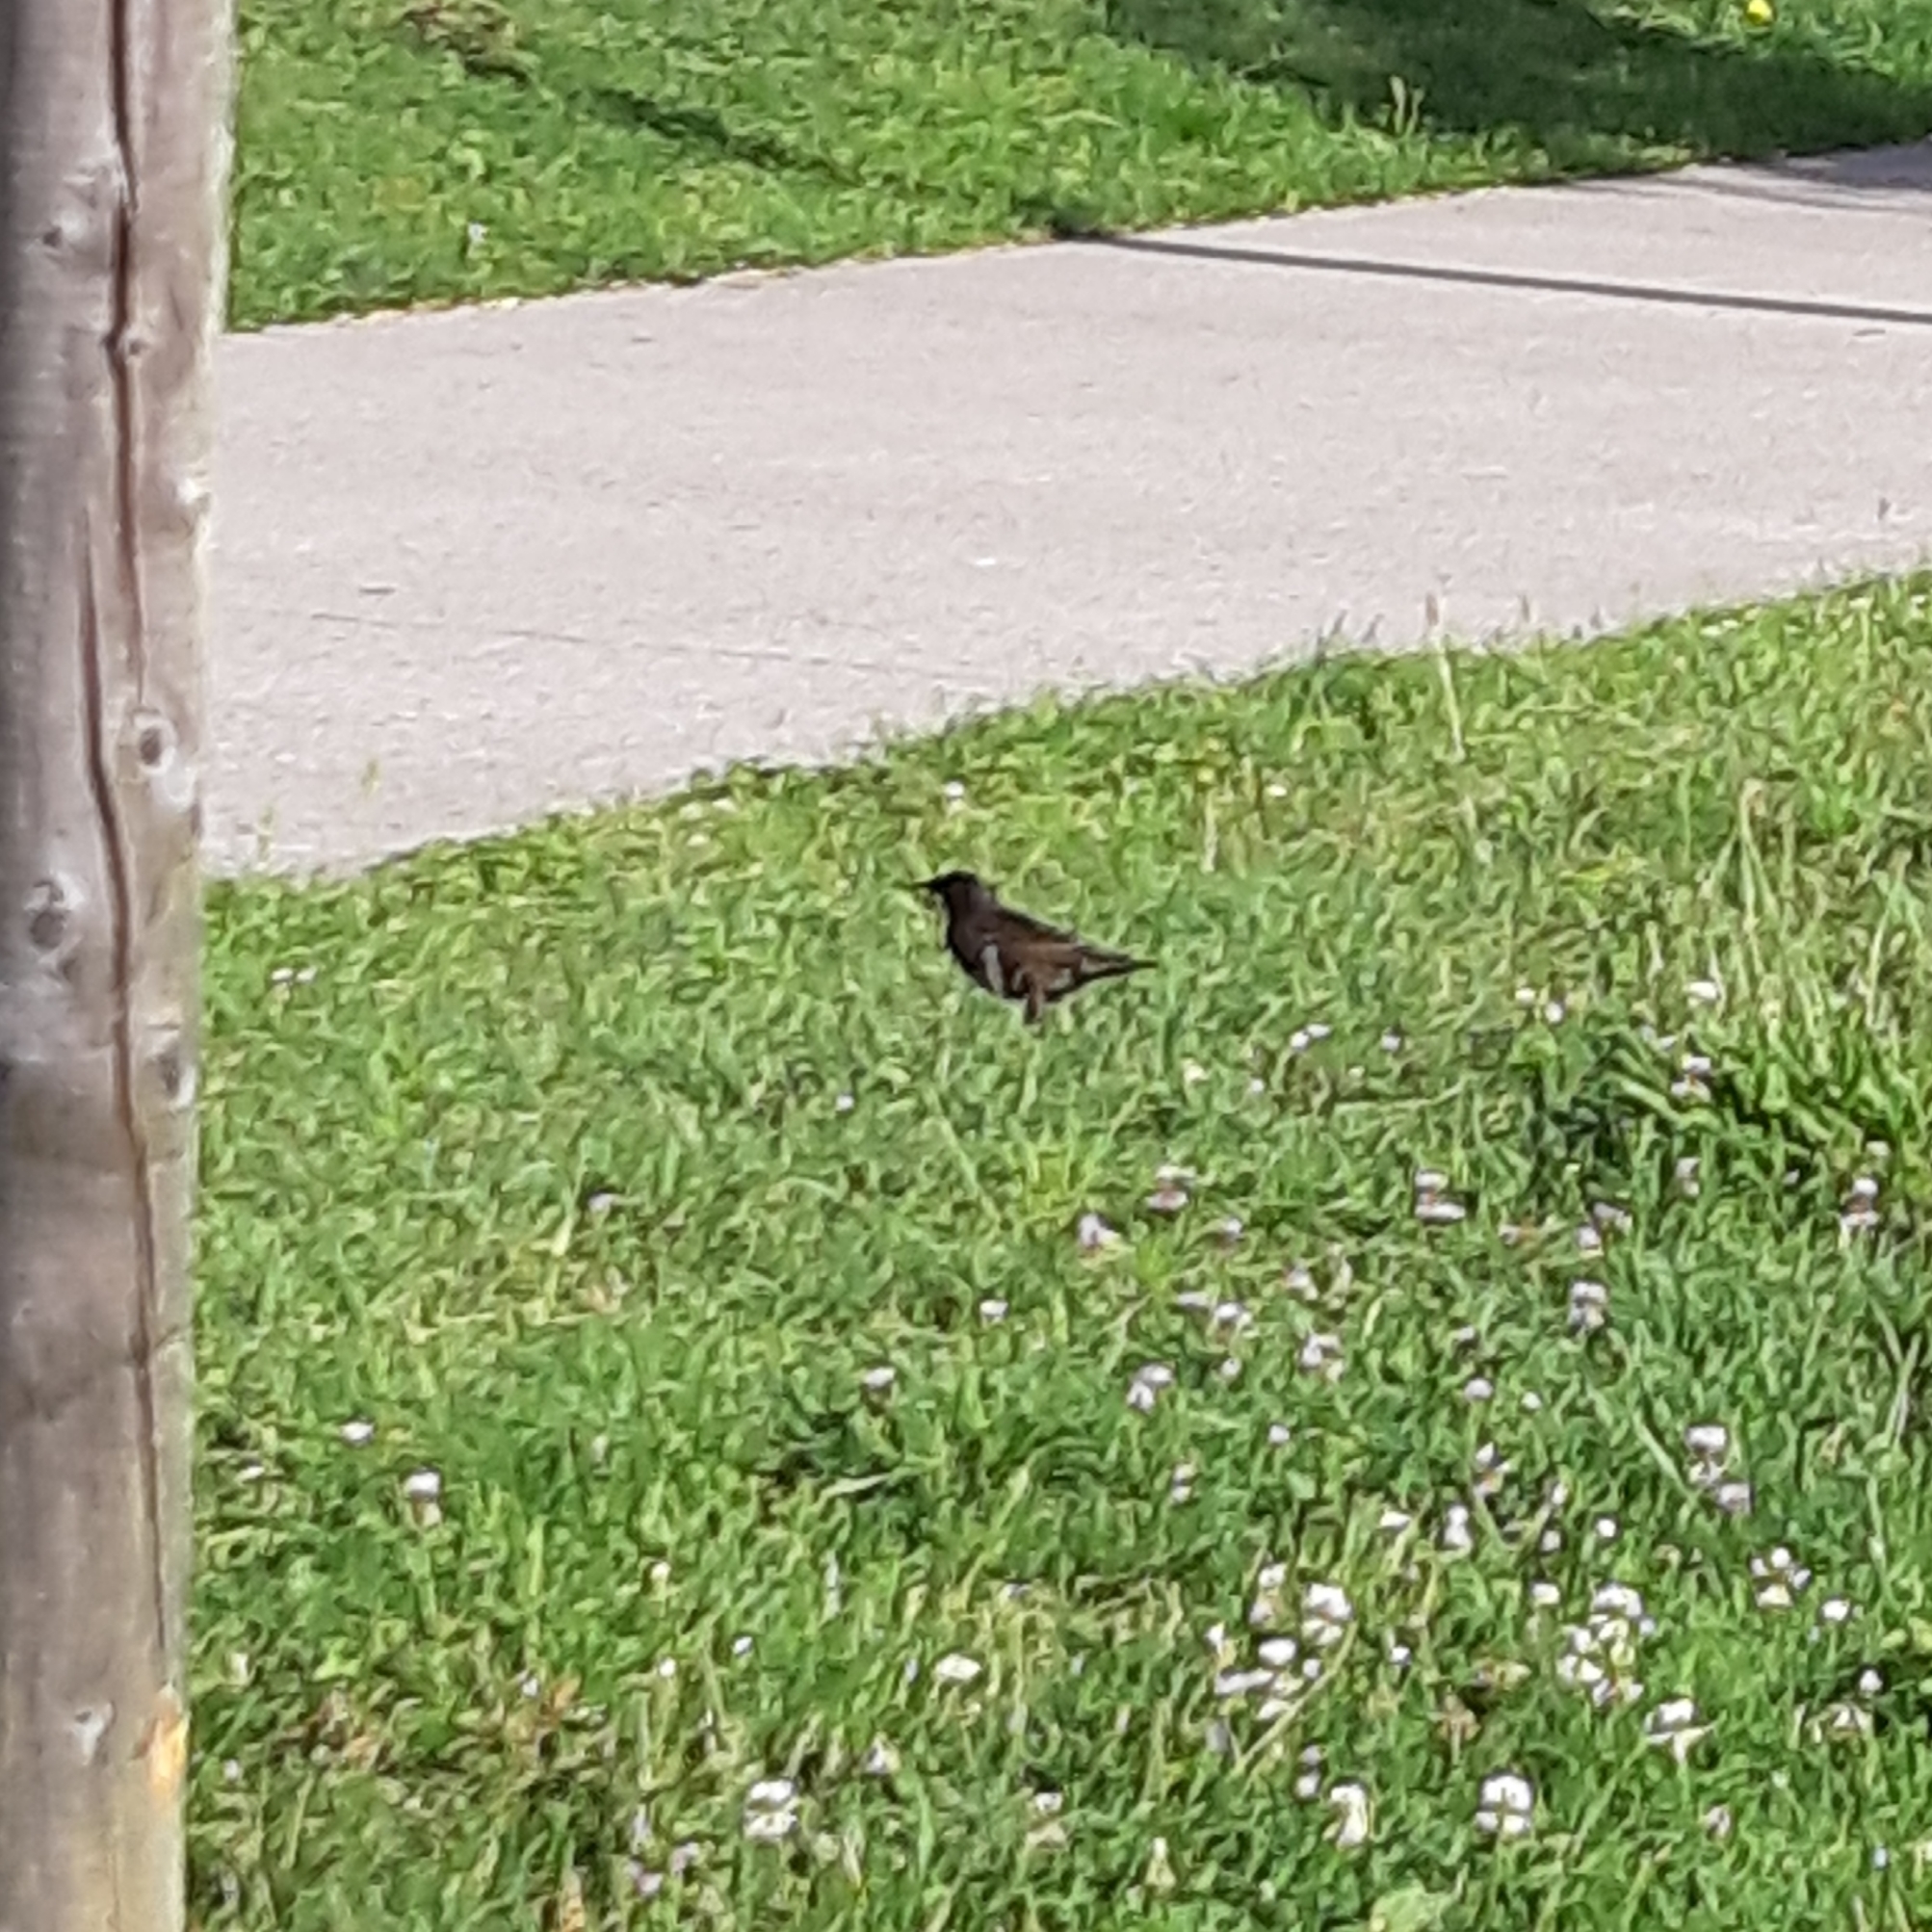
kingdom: Animalia
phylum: Chordata
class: Aves
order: Passeriformes
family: Sturnidae
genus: Sturnus
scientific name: Sturnus vulgaris
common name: Common starling
